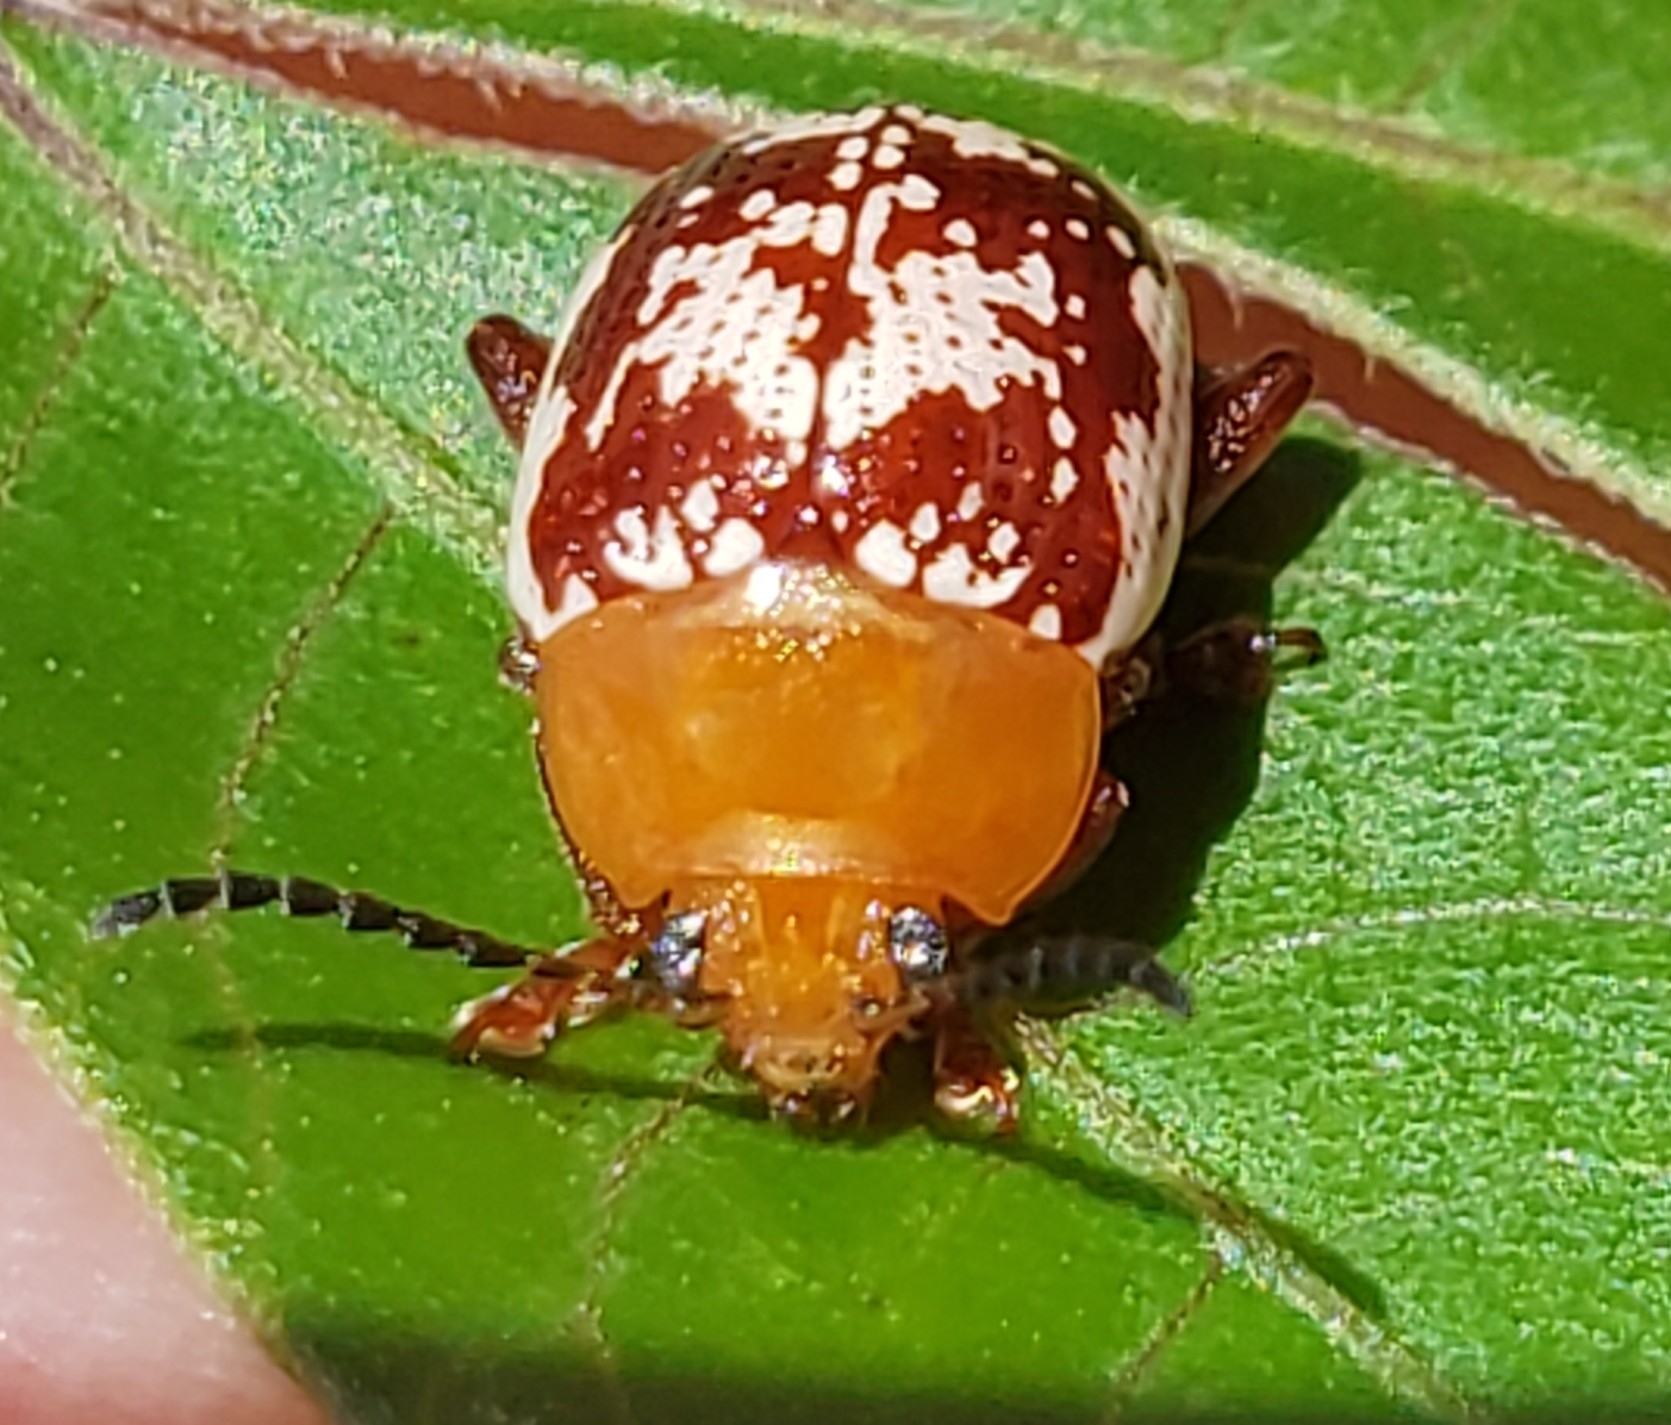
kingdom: Animalia
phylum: Arthropoda
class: Insecta
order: Coleoptera
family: Chrysomelidae
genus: Blepharida
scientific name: Blepharida rhois
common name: Sumac flea beetle
